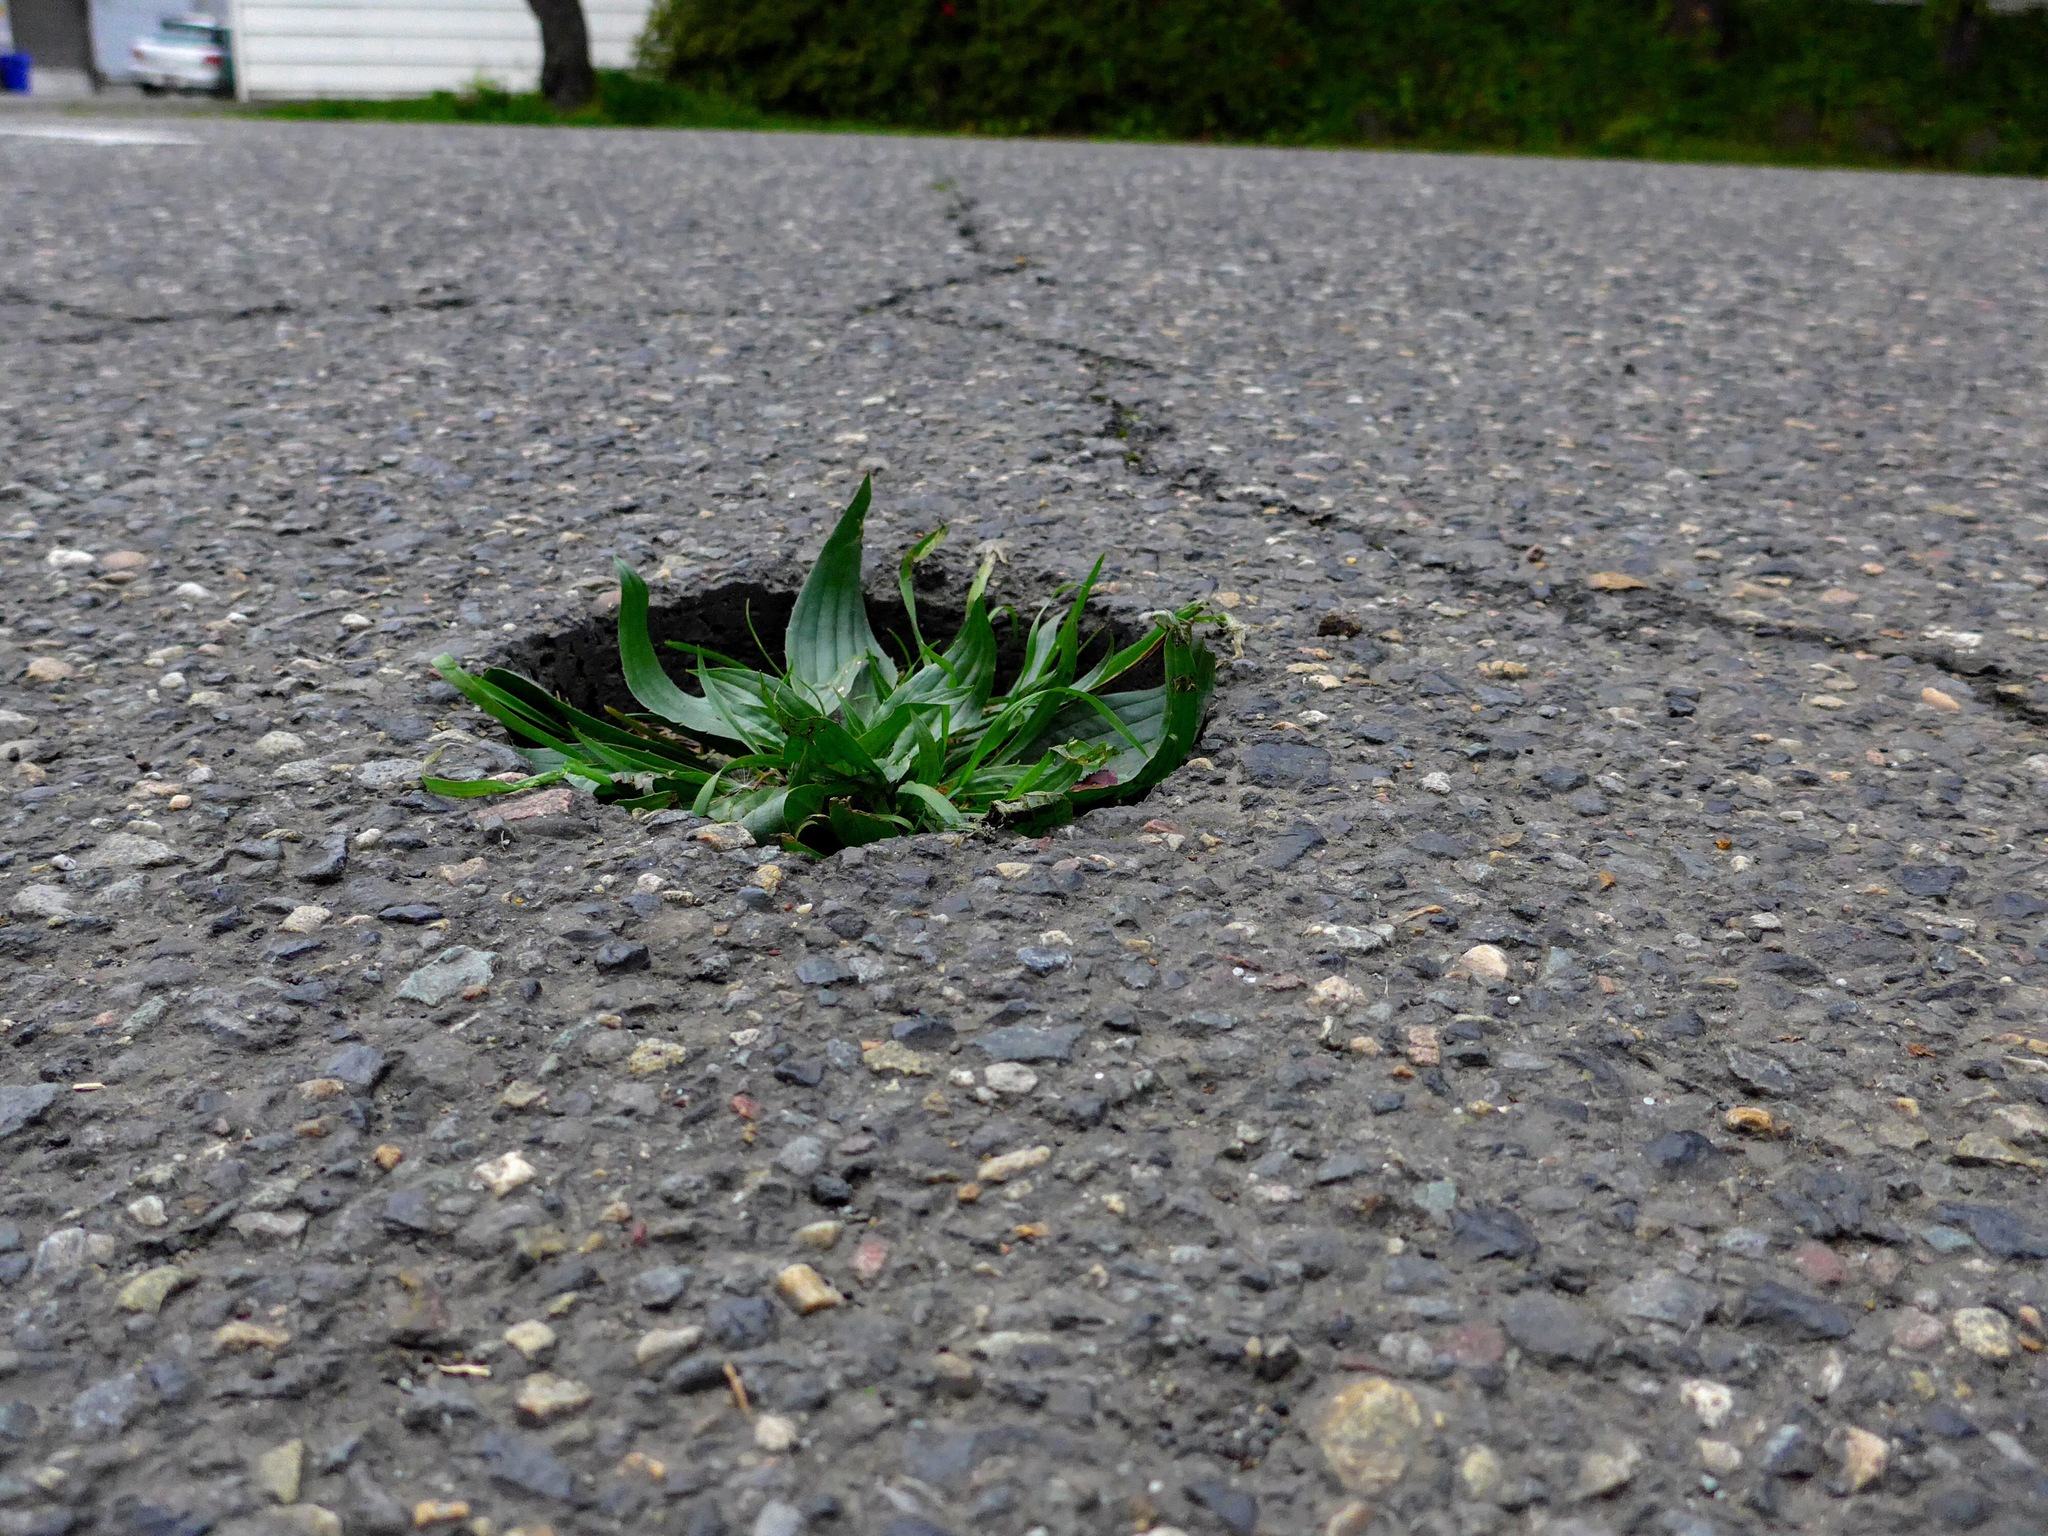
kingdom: Plantae
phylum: Tracheophyta
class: Magnoliopsida
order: Lamiales
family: Plantaginaceae
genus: Plantago
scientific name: Plantago lanceolata
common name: Ribwort plantain
